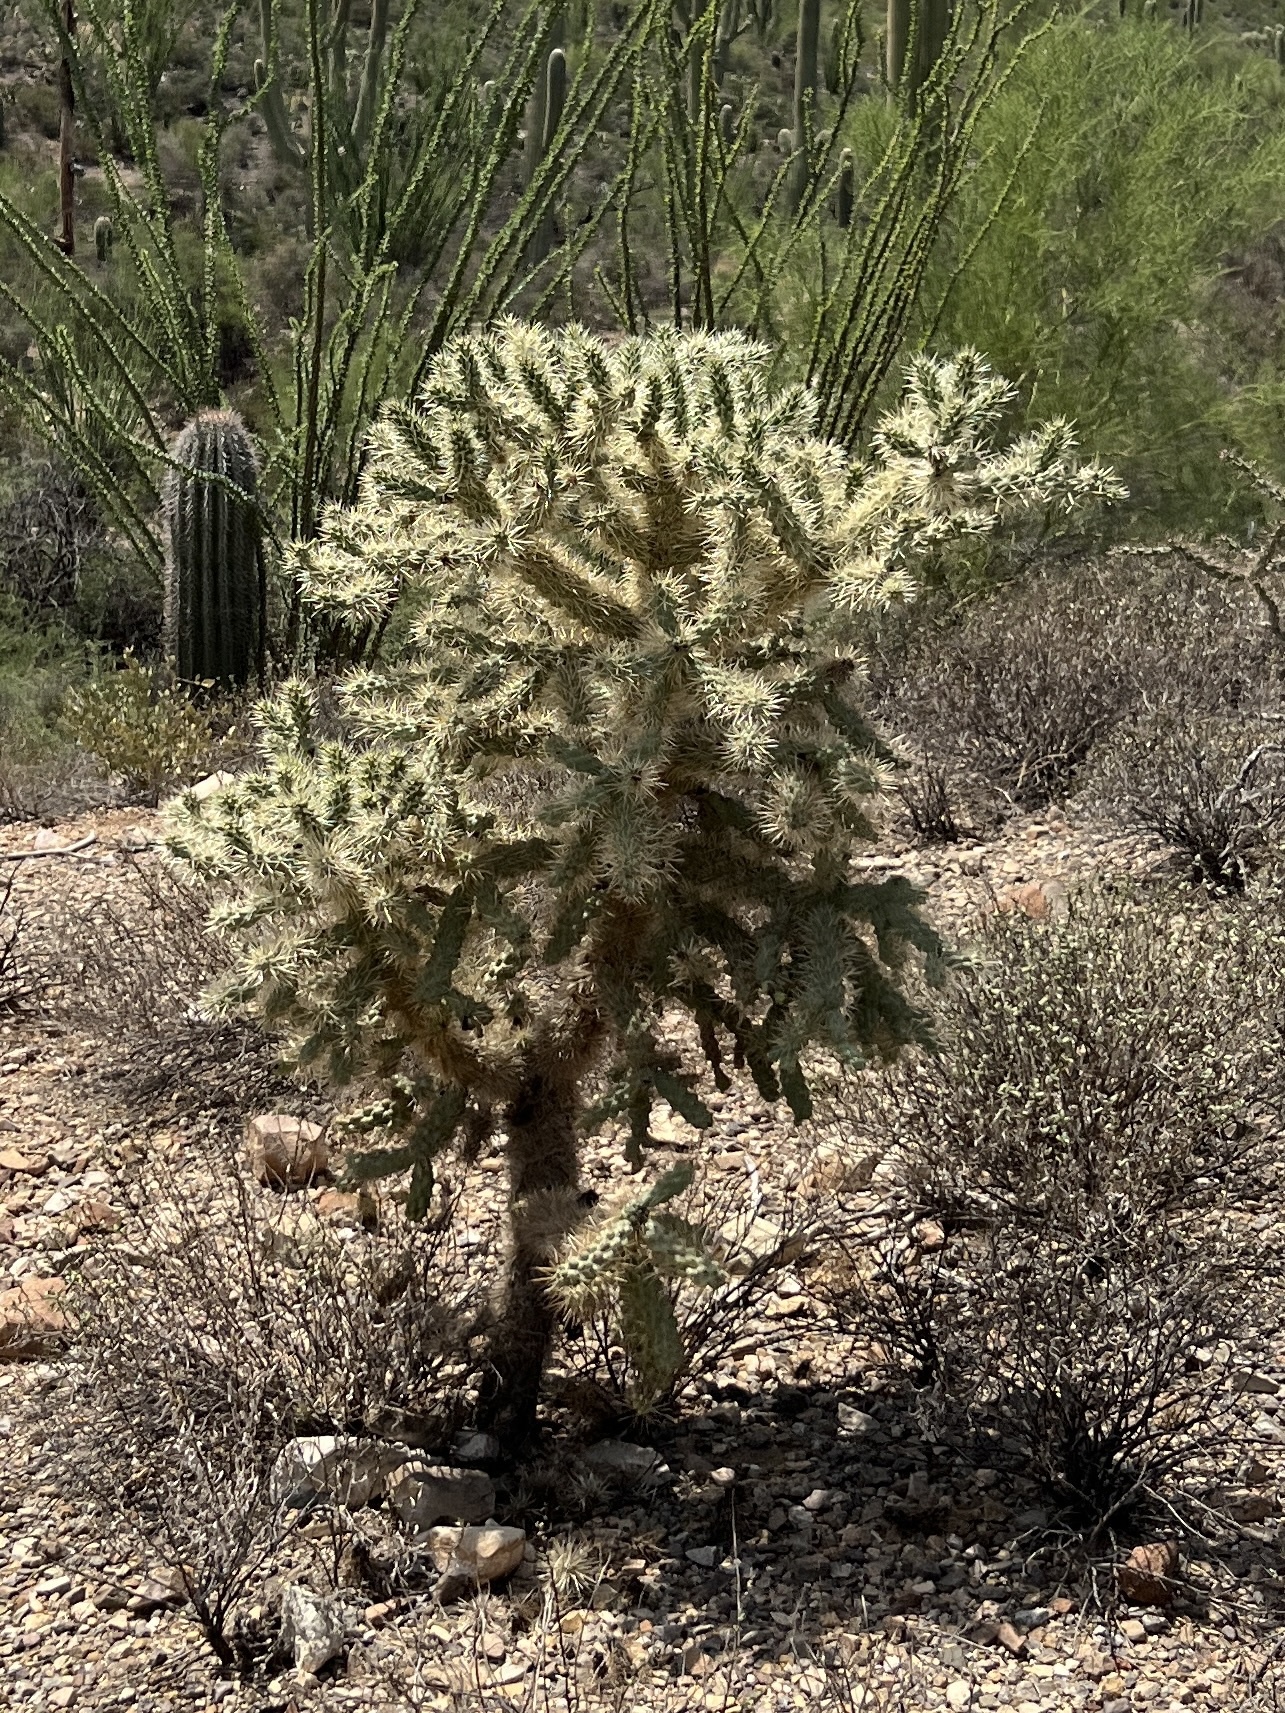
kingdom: Plantae
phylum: Tracheophyta
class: Magnoliopsida
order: Caryophyllales
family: Cactaceae
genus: Cylindropuntia
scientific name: Cylindropuntia fulgida
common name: Jumping cholla
